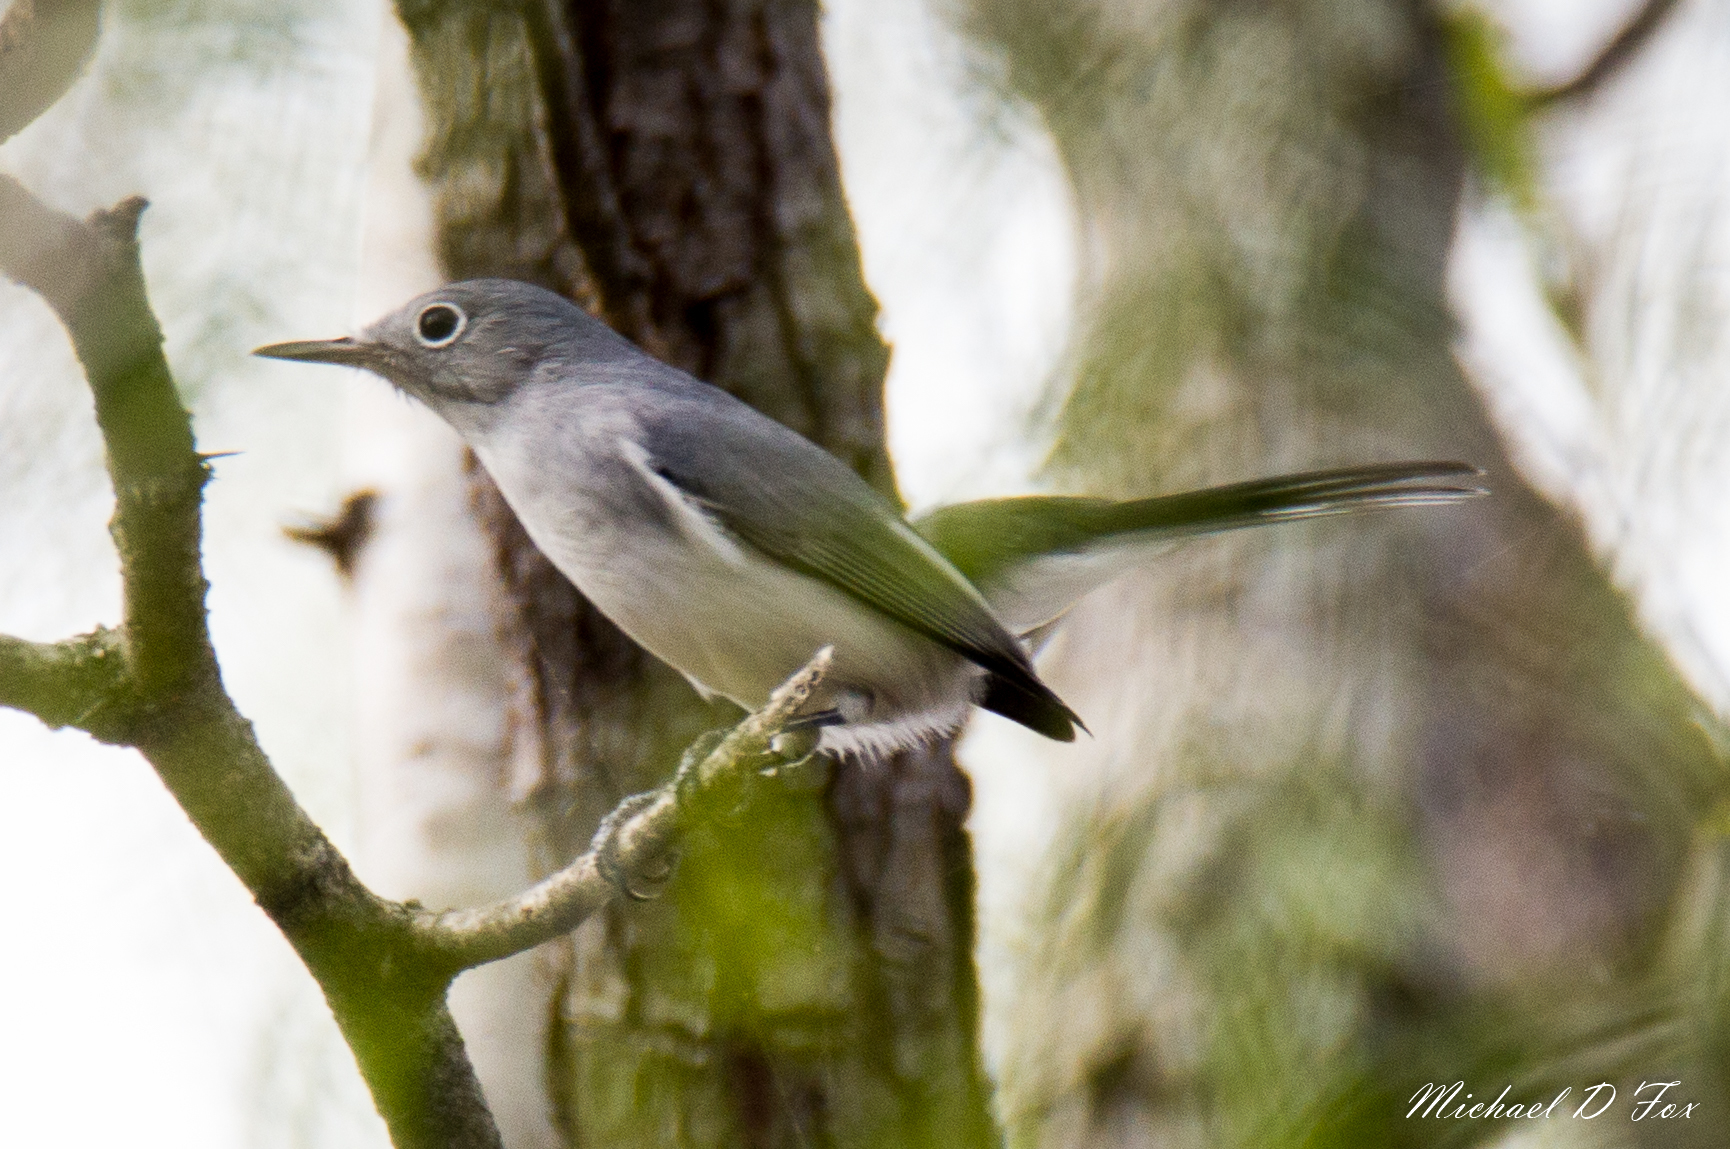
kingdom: Animalia
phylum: Chordata
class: Aves
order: Passeriformes
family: Polioptilidae
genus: Polioptila
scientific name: Polioptila caerulea
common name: Blue-gray gnatcatcher
